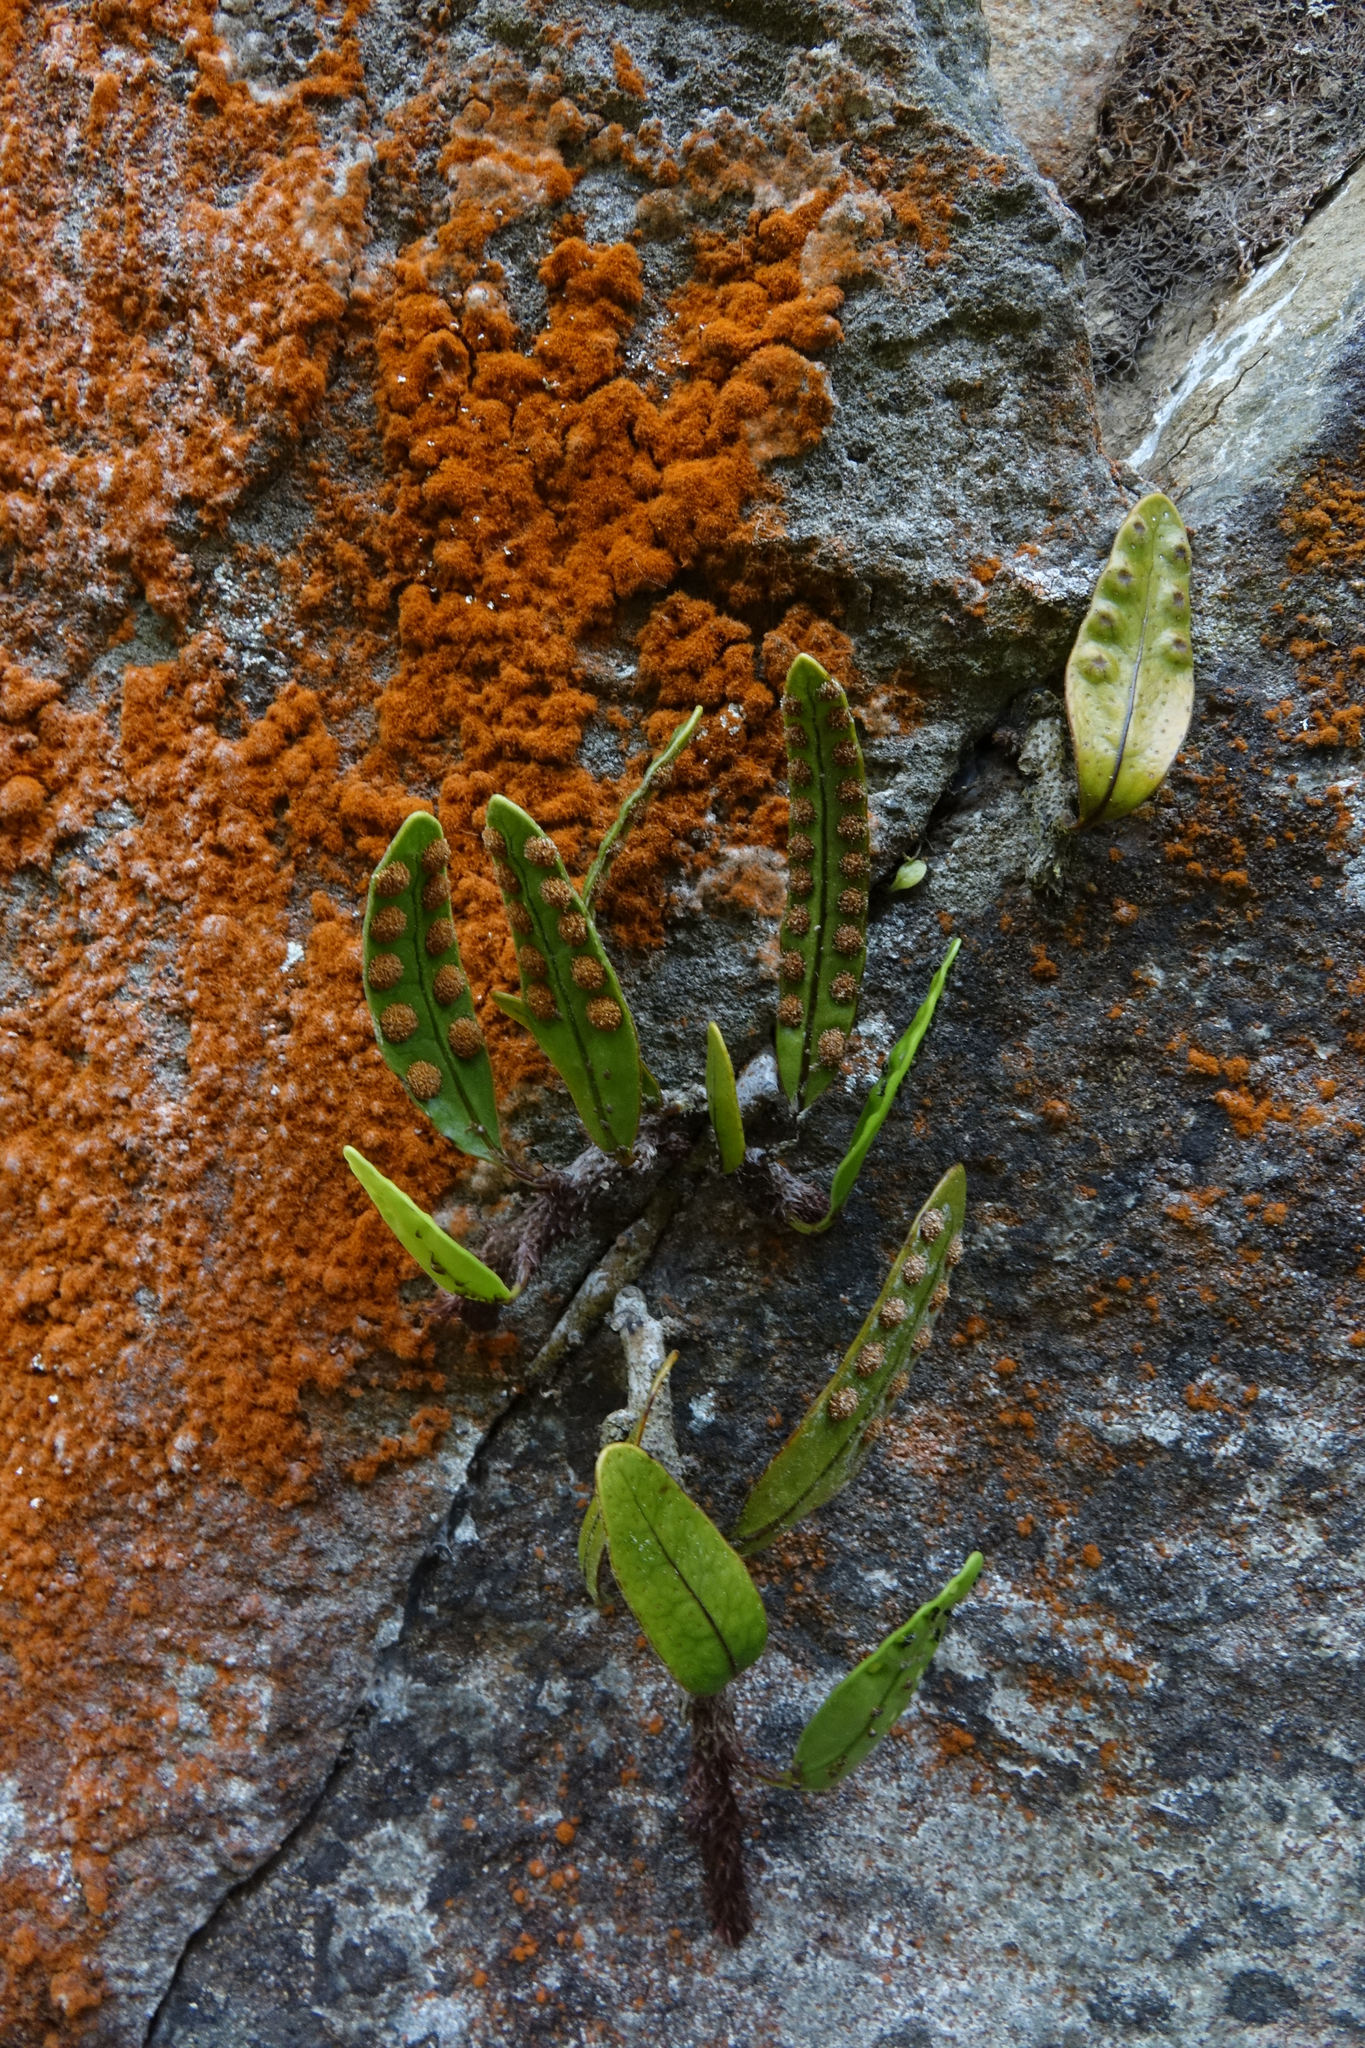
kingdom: Plantae
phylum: Tracheophyta
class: Polypodiopsida
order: Polypodiales
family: Polypodiaceae
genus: Lecanopteris
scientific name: Lecanopteris pustulata
